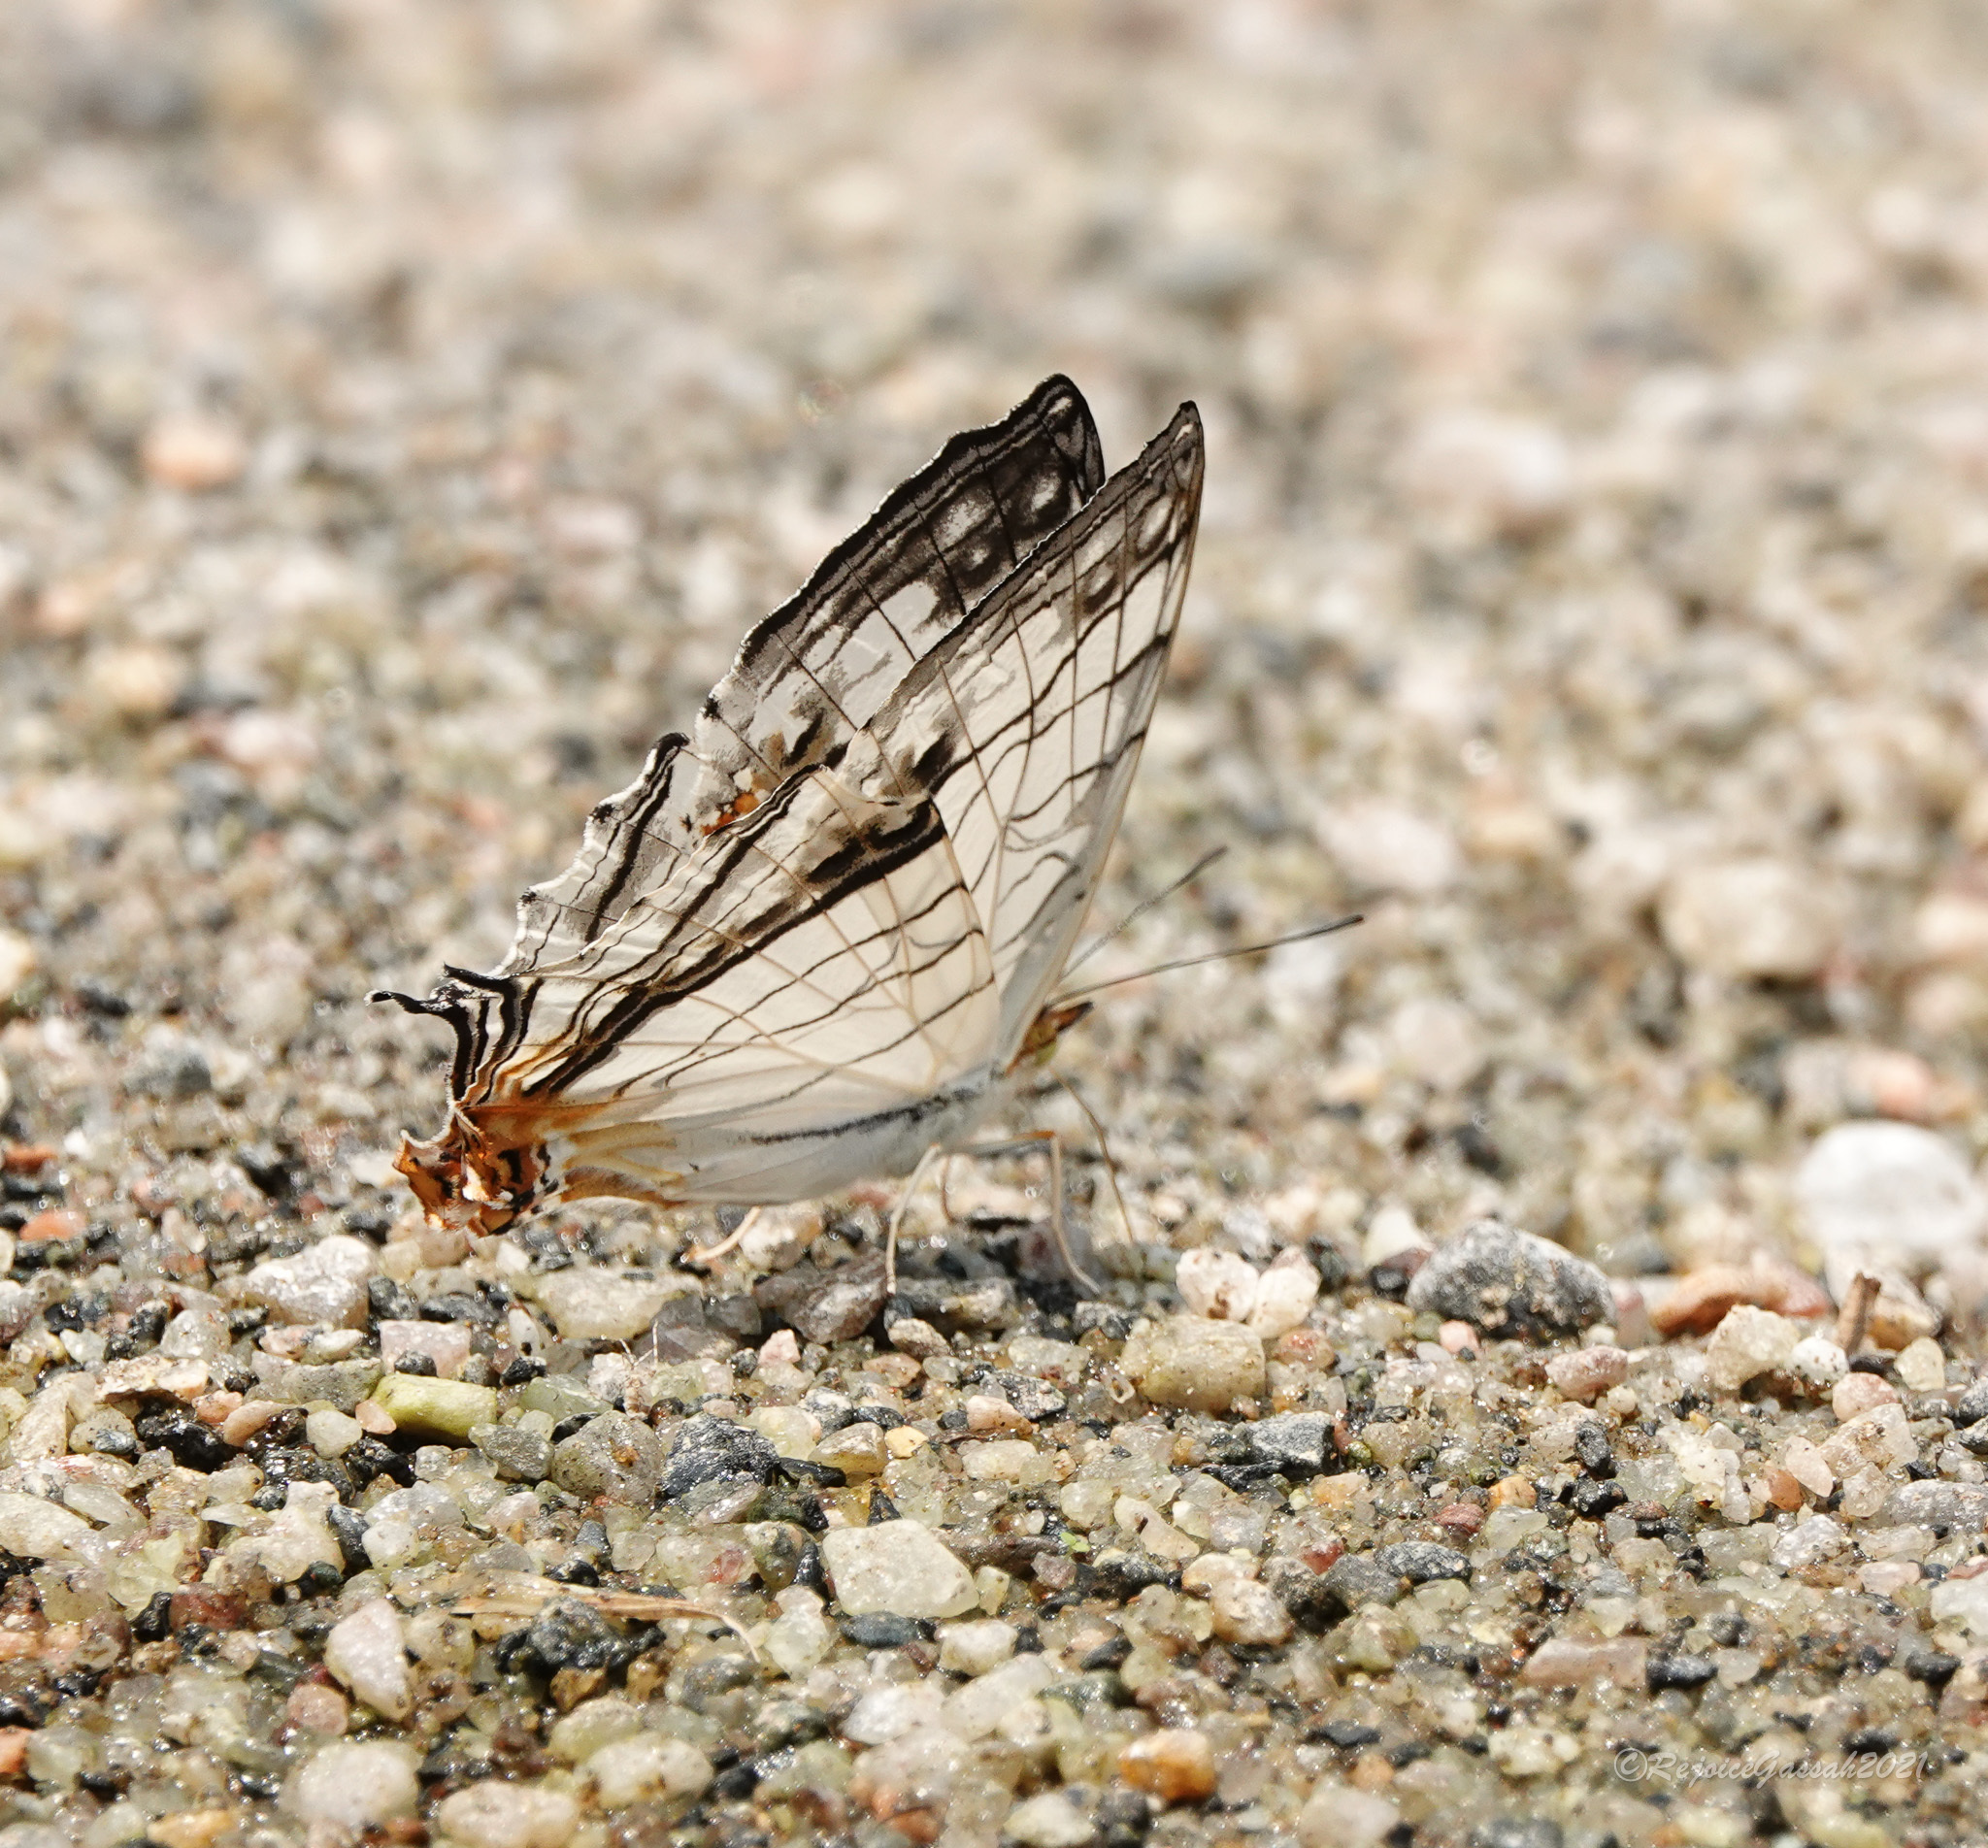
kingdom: Animalia
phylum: Arthropoda
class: Insecta
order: Lepidoptera
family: Nymphalidae
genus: Cyrestis
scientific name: Cyrestis thyodamas
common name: Common mapwing
